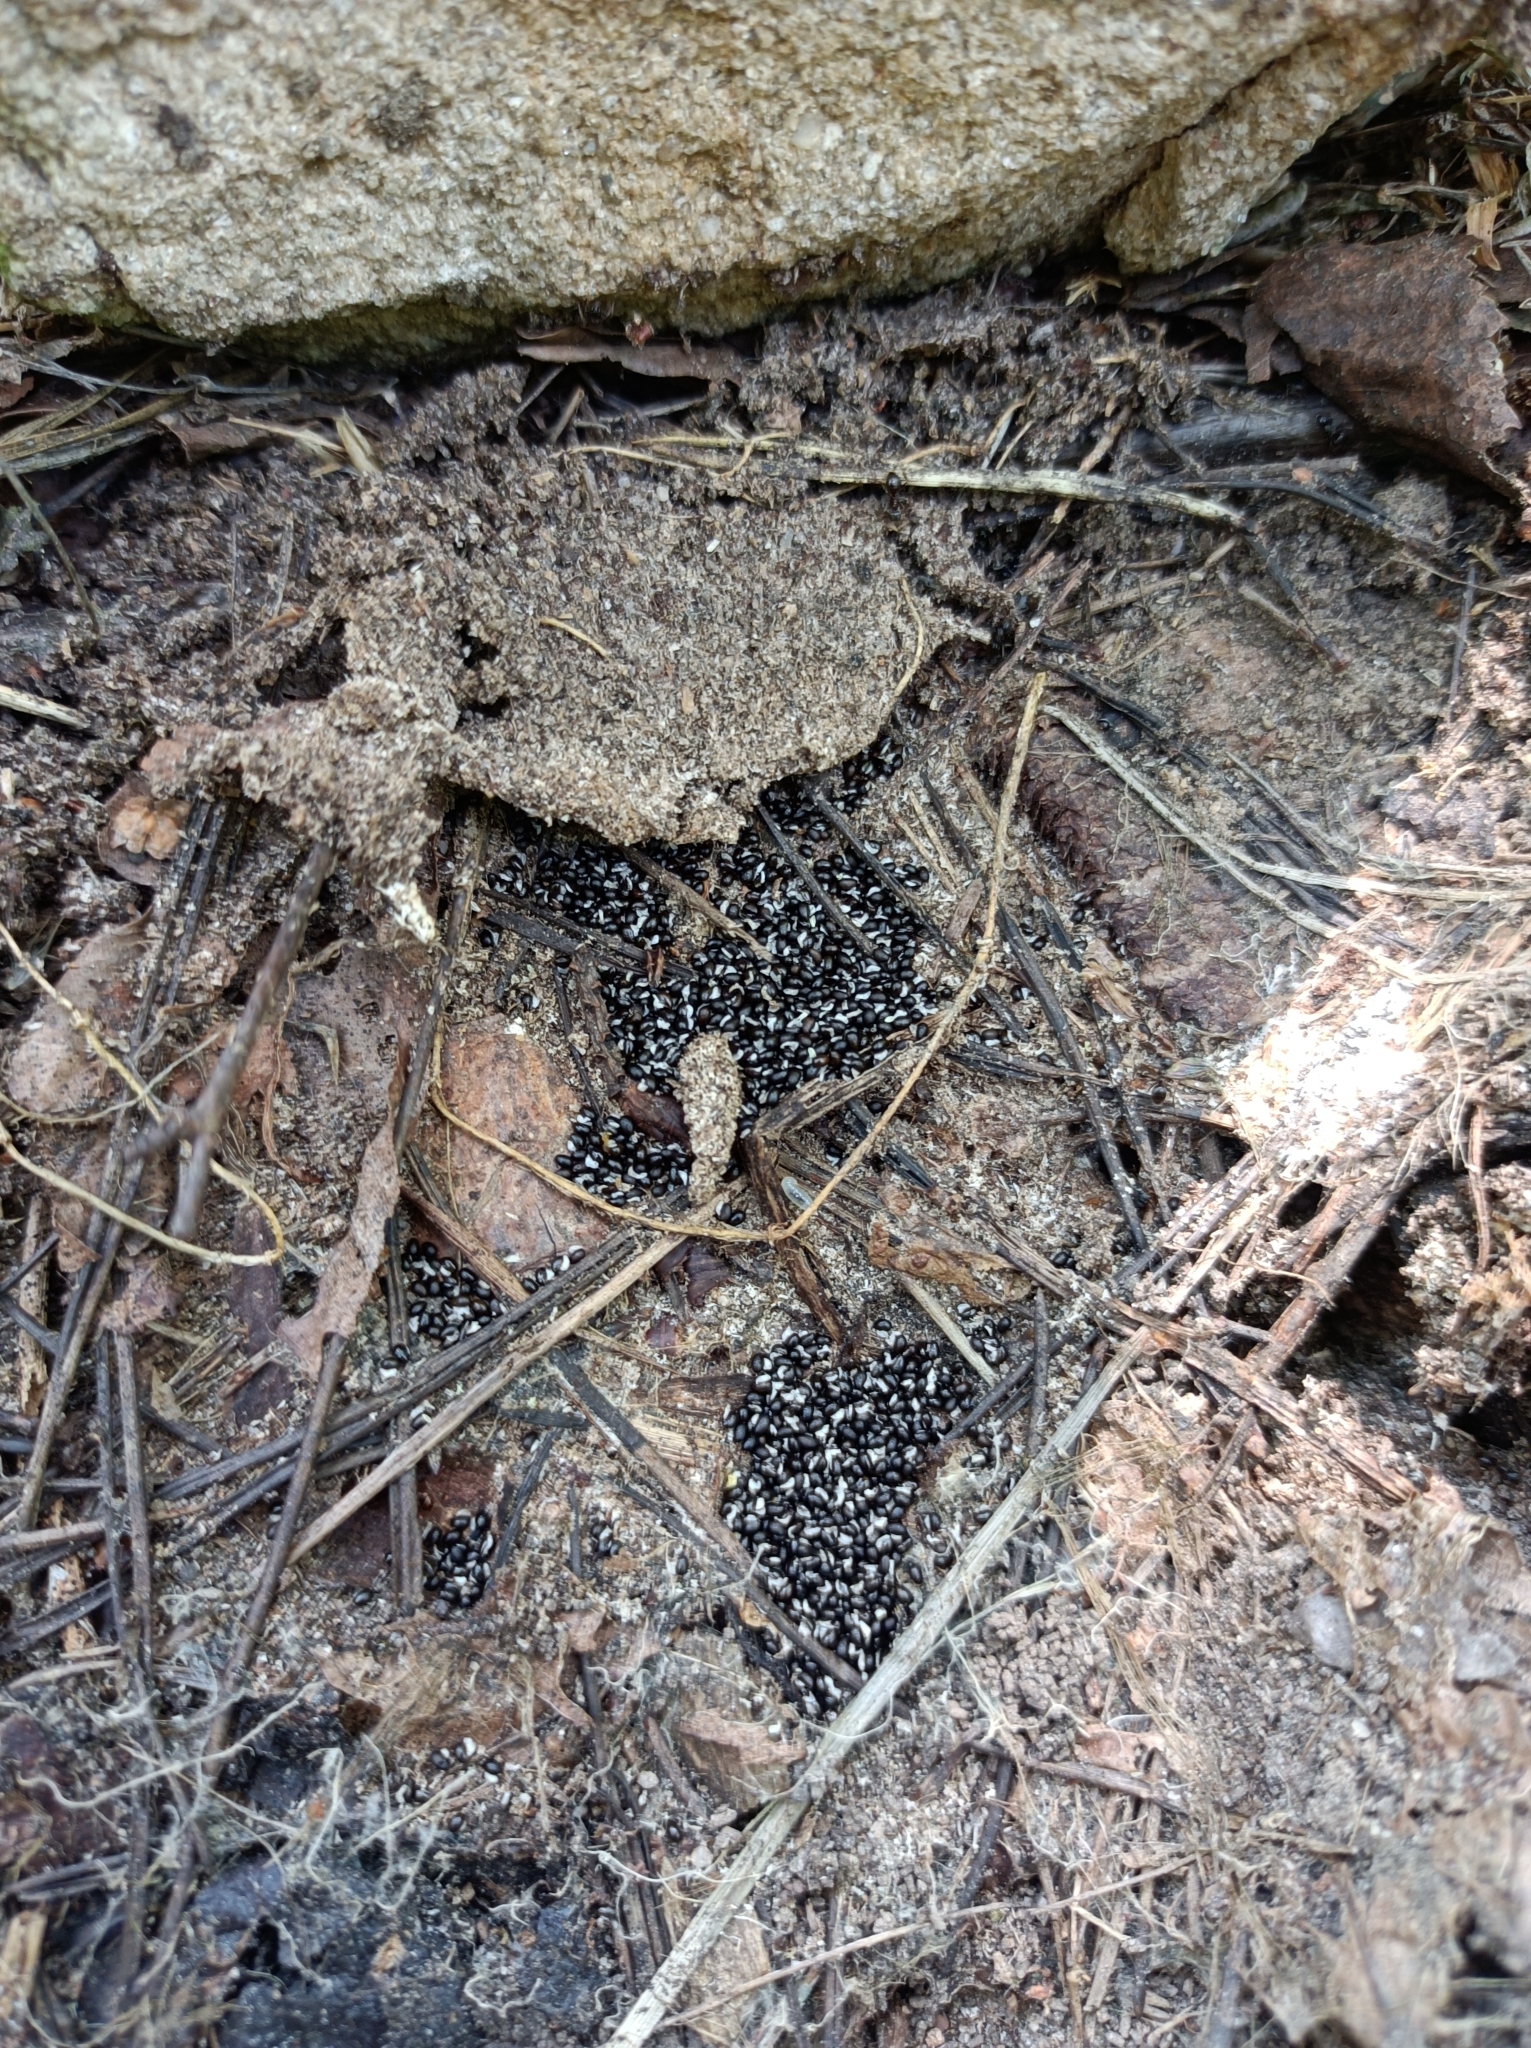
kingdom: Plantae
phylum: Tracheophyta
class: Magnoliopsida
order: Ranunculales
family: Papaveraceae
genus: Chelidonium
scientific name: Chelidonium majus
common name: Greater celandine
